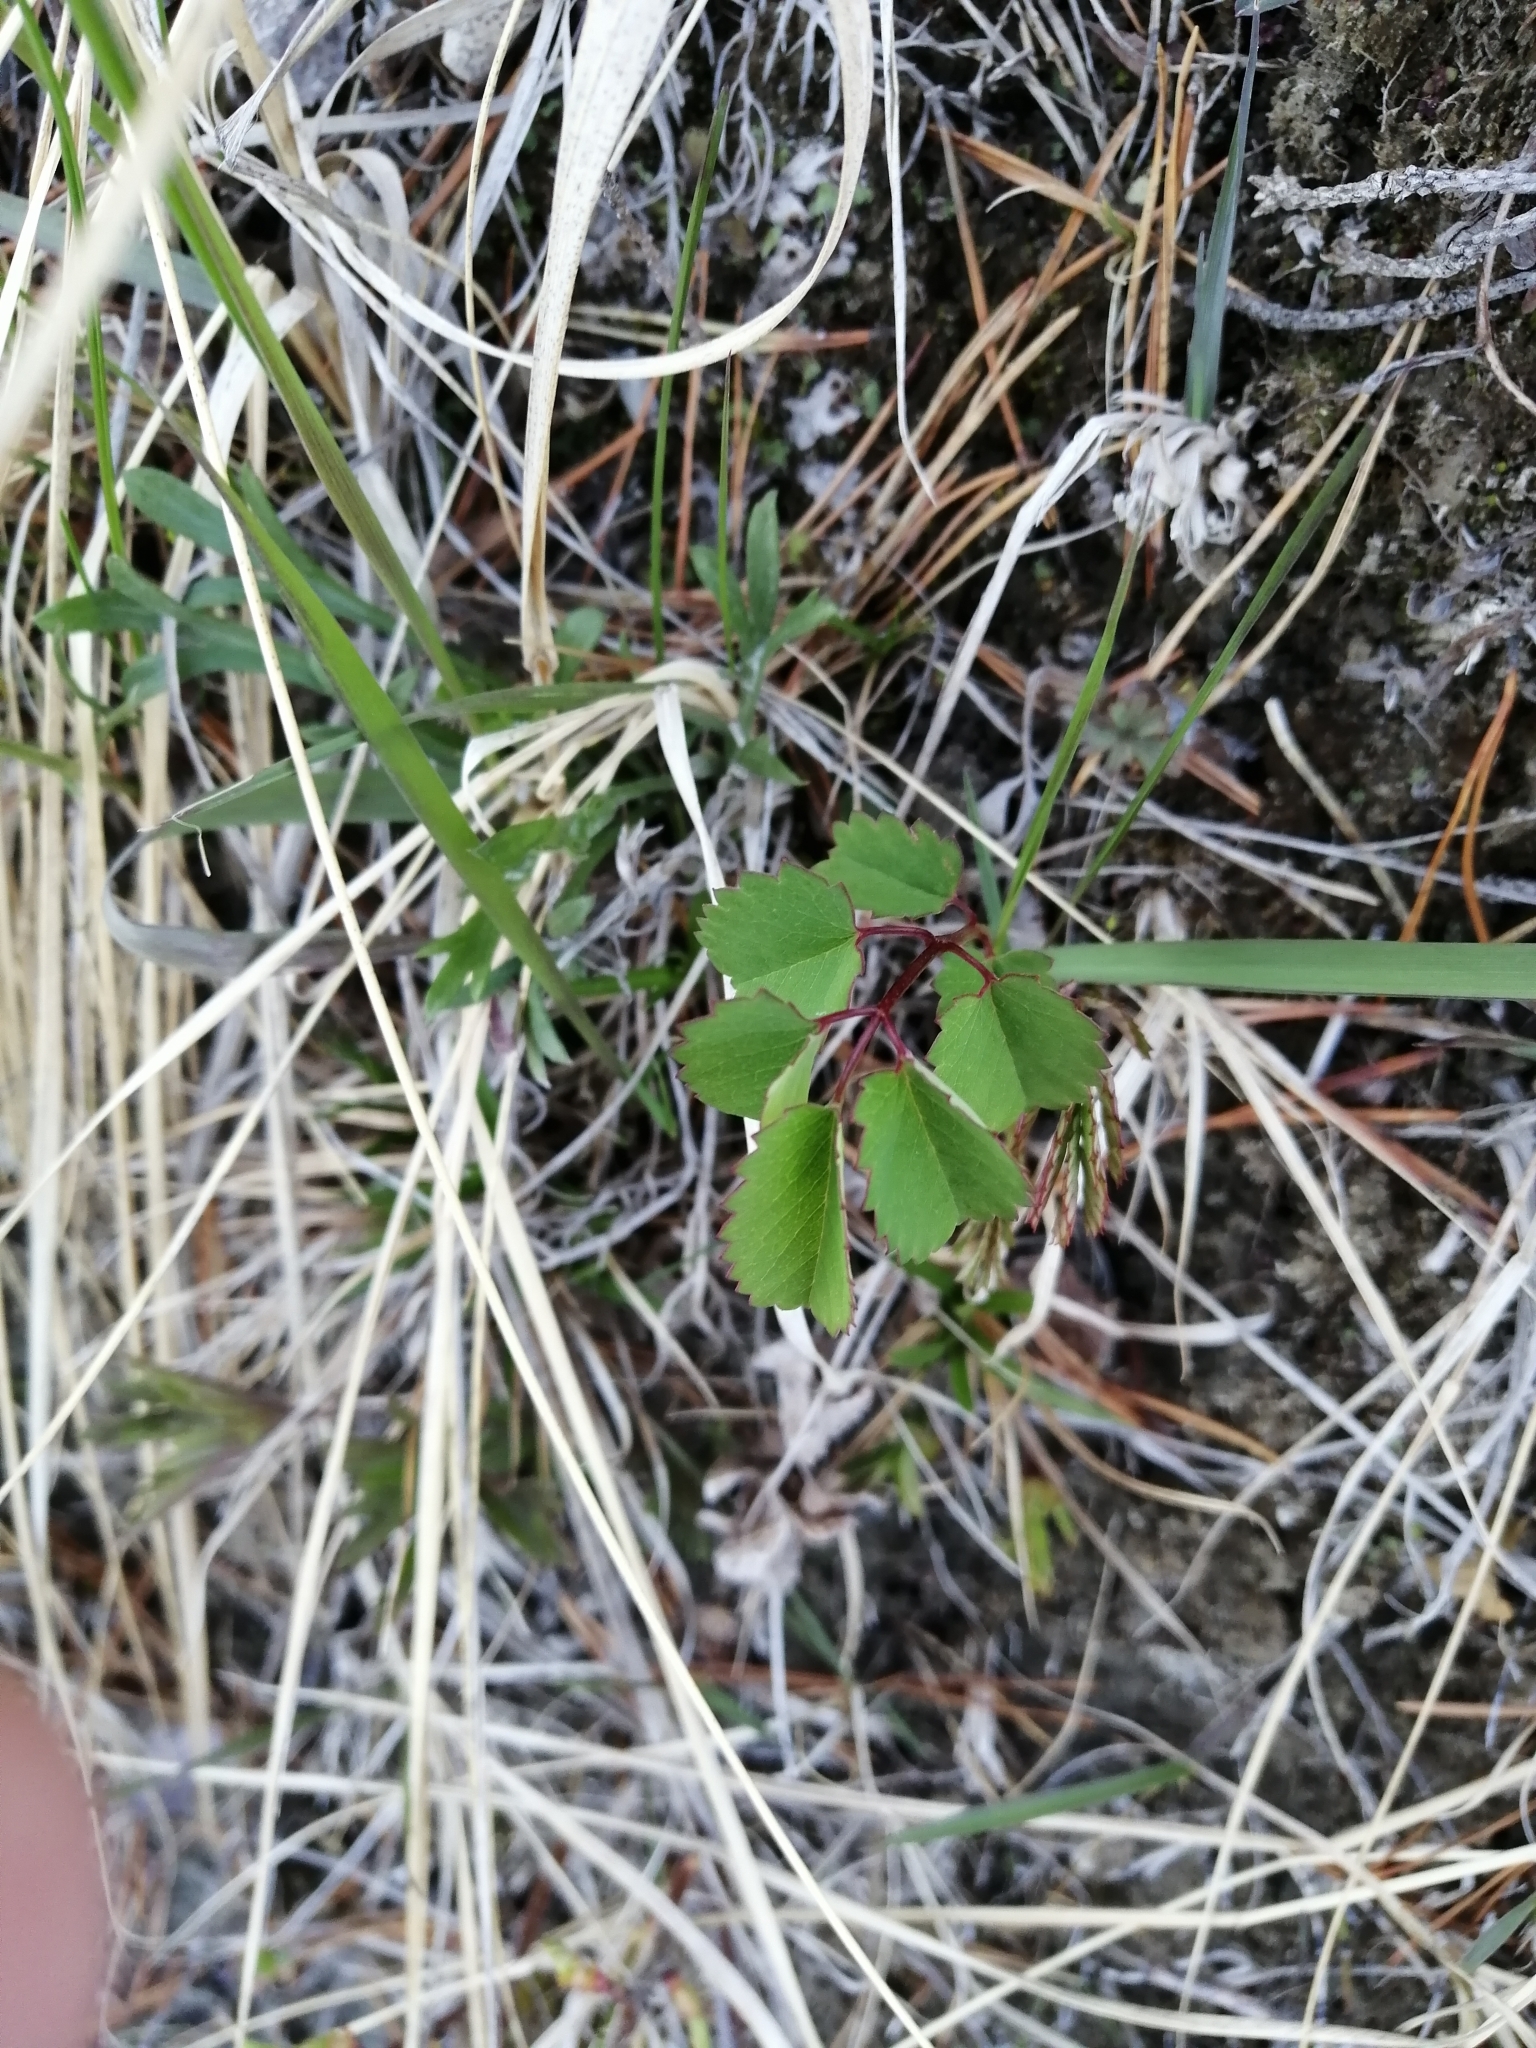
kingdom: Plantae
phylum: Tracheophyta
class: Magnoliopsida
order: Rosales
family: Rosaceae
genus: Sanguisorba
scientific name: Sanguisorba officinalis
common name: Great burnet
